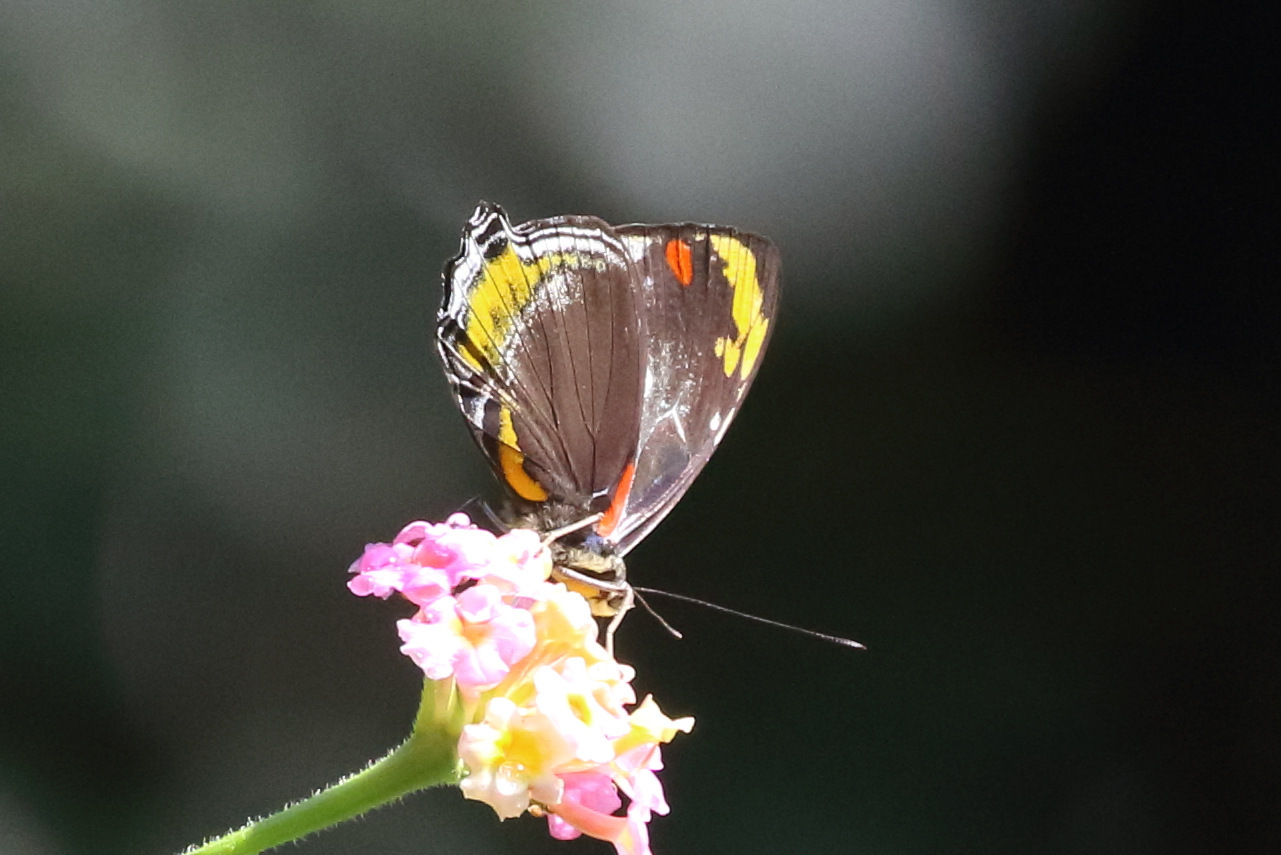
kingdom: Animalia
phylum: Arthropoda
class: Insecta
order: Lepidoptera
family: Nymphalidae
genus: Mynes
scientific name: Mynes geoffroyi
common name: Jezebel nymph
